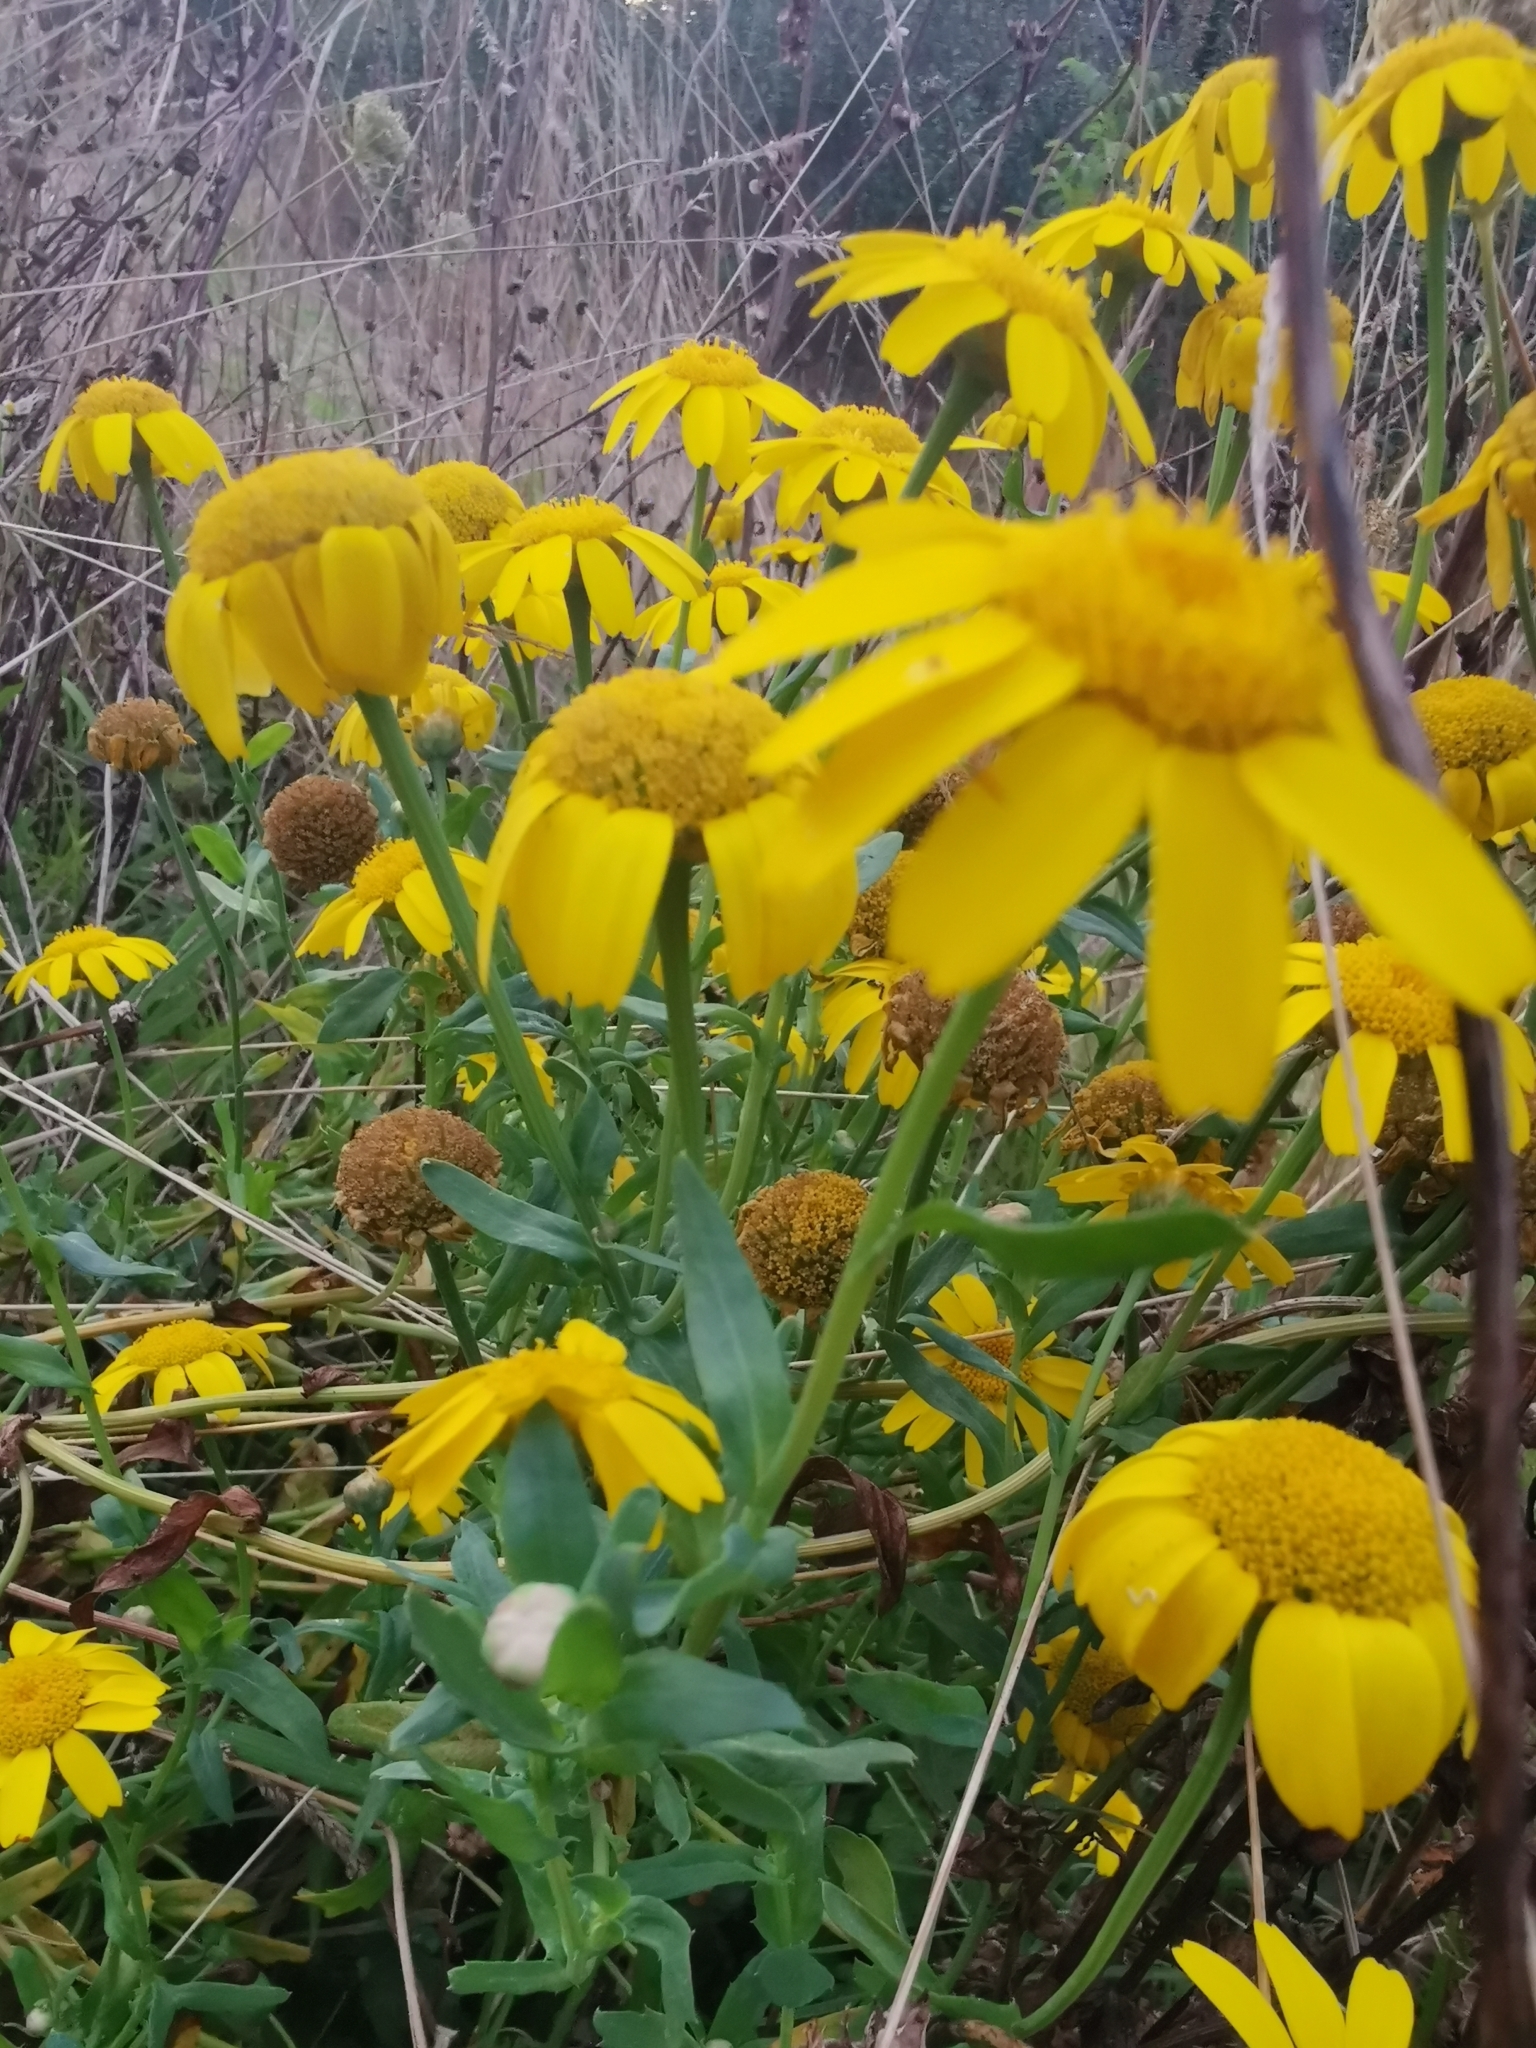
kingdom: Plantae
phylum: Tracheophyta
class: Magnoliopsida
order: Asterales
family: Asteraceae
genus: Glebionis
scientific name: Glebionis segetum
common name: Corndaisy
